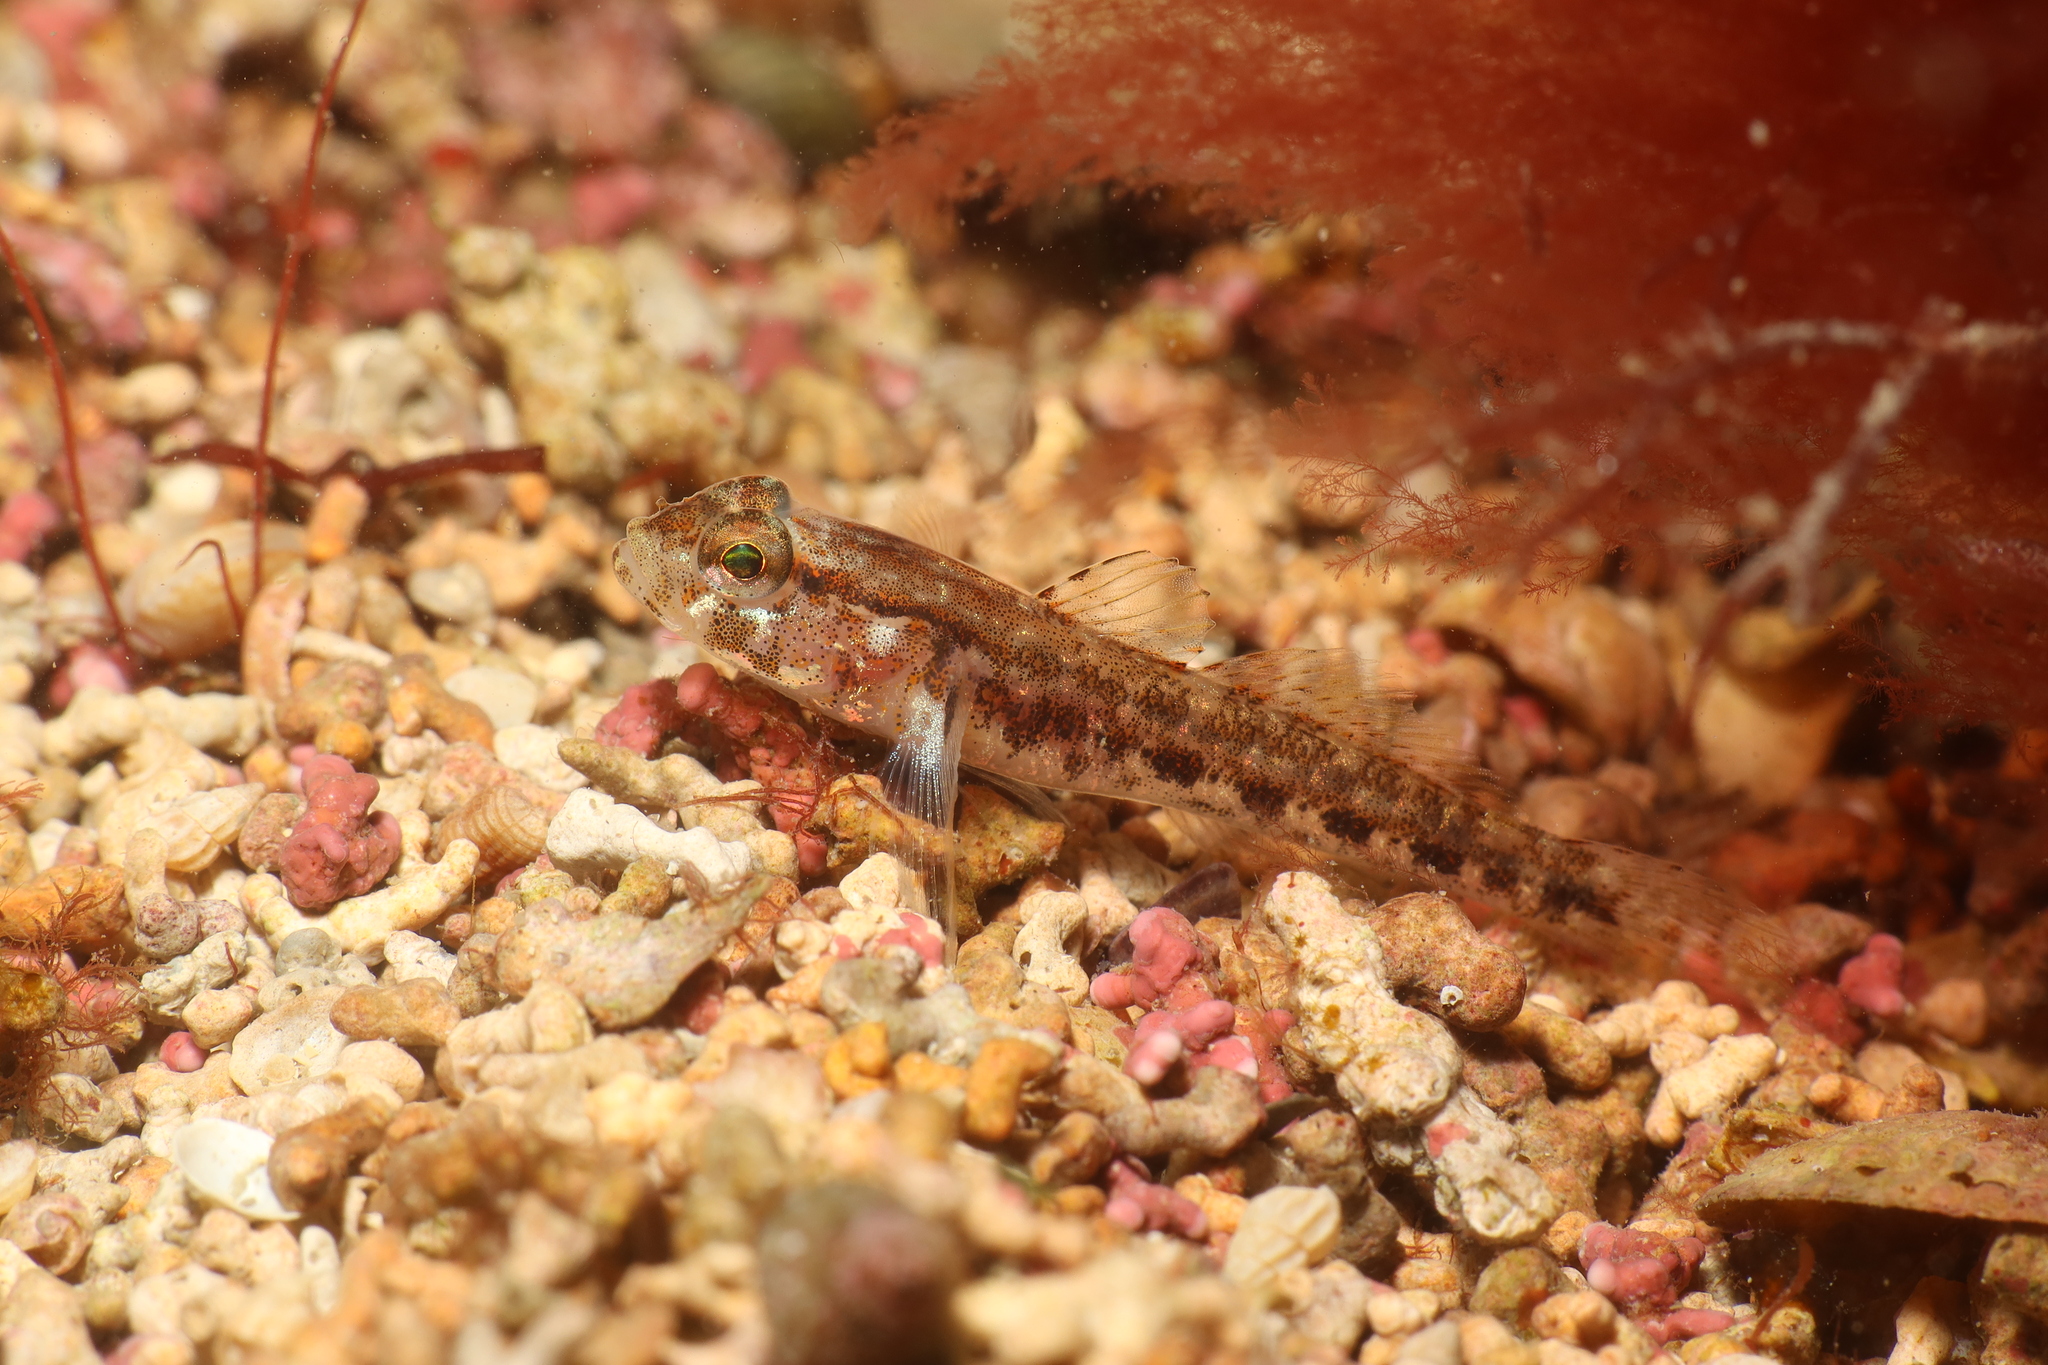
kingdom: Animalia
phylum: Chordata
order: Perciformes
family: Gobiidae
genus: Gobius
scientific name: Gobius gasteveni
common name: Steven's goby
